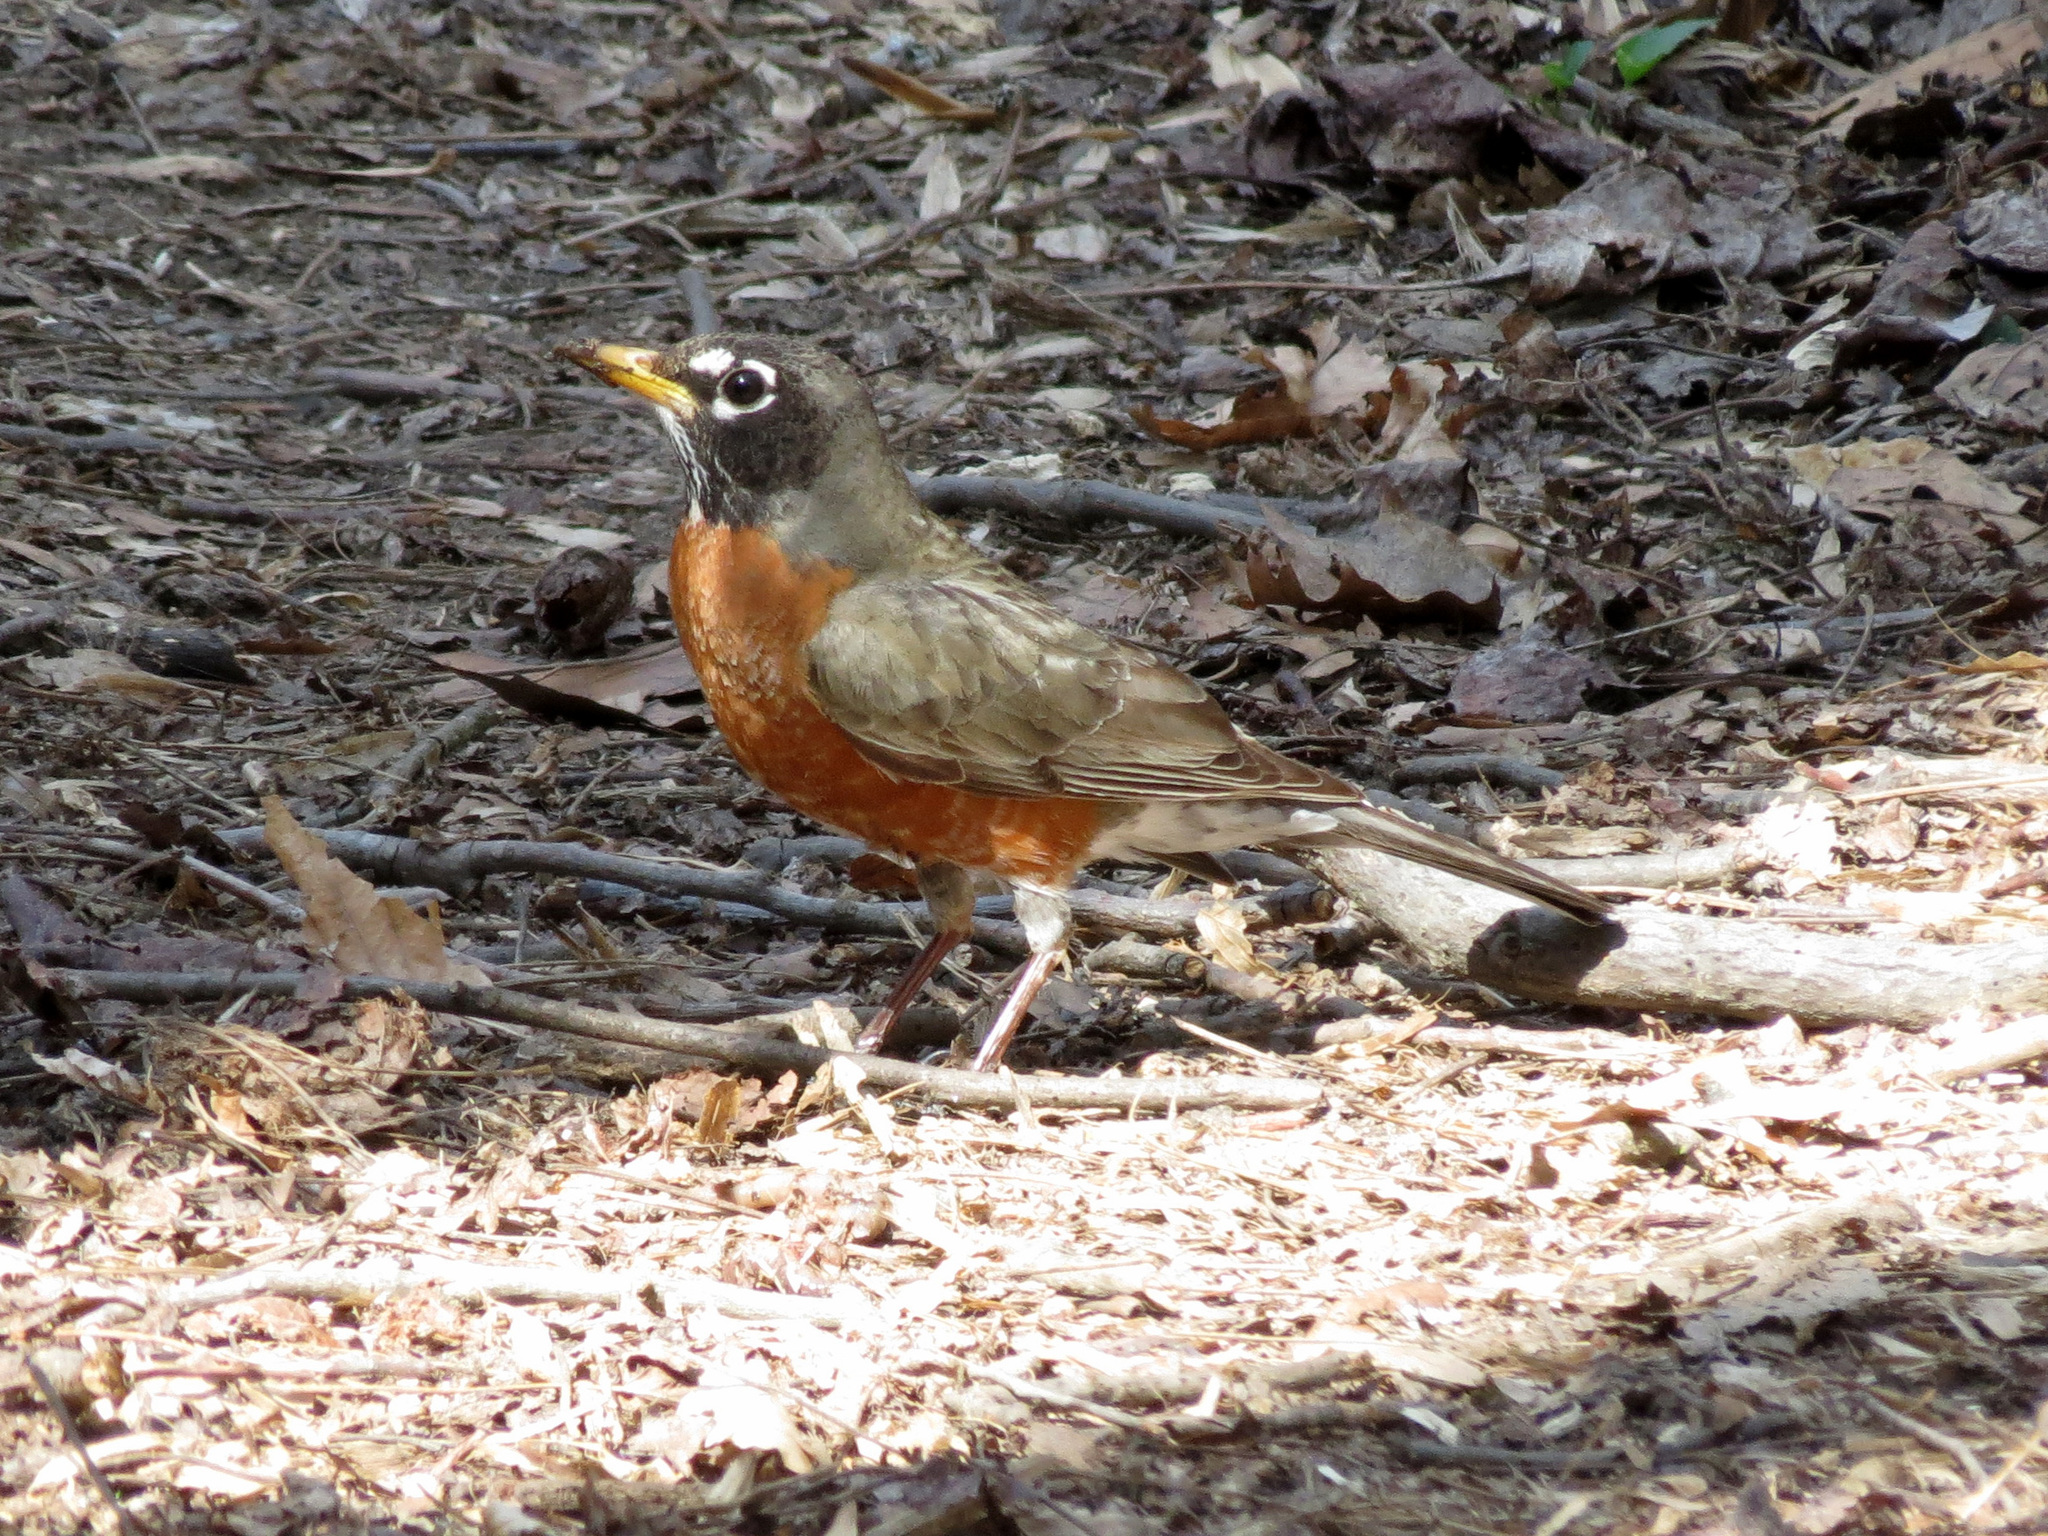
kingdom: Animalia
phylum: Chordata
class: Aves
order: Passeriformes
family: Turdidae
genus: Turdus
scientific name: Turdus migratorius
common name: American robin
